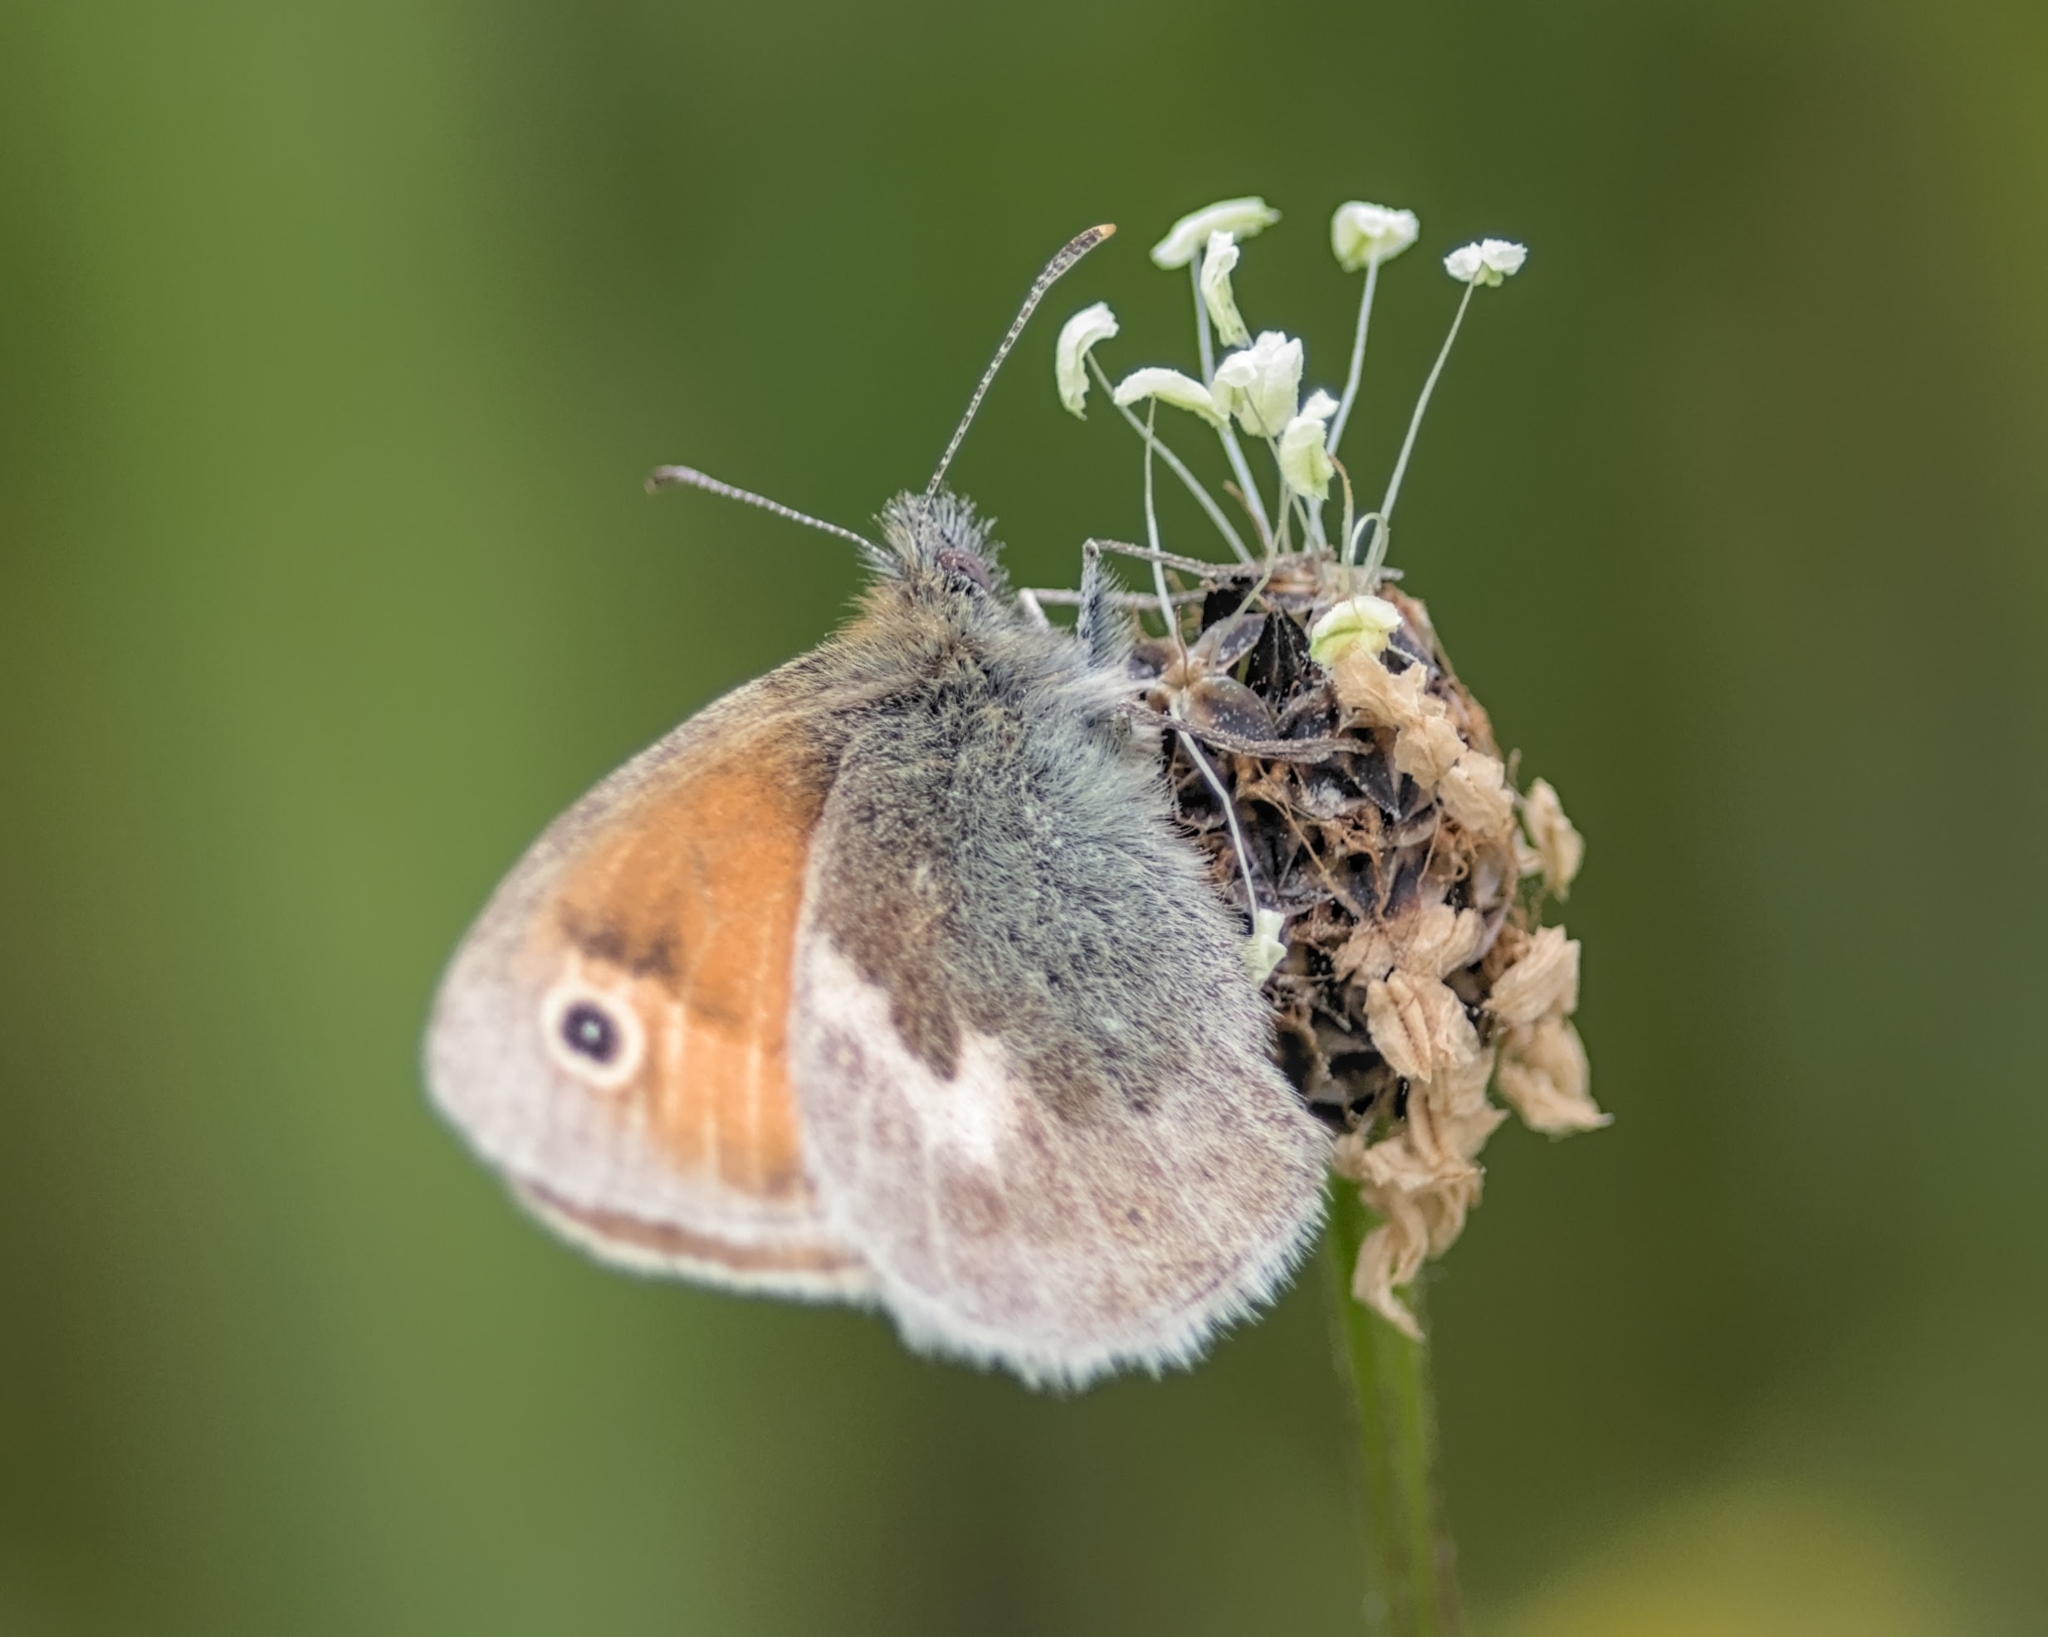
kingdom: Animalia
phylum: Arthropoda
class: Insecta
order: Lepidoptera
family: Nymphalidae
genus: Coenonympha
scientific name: Coenonympha pamphilus
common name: Small heath
